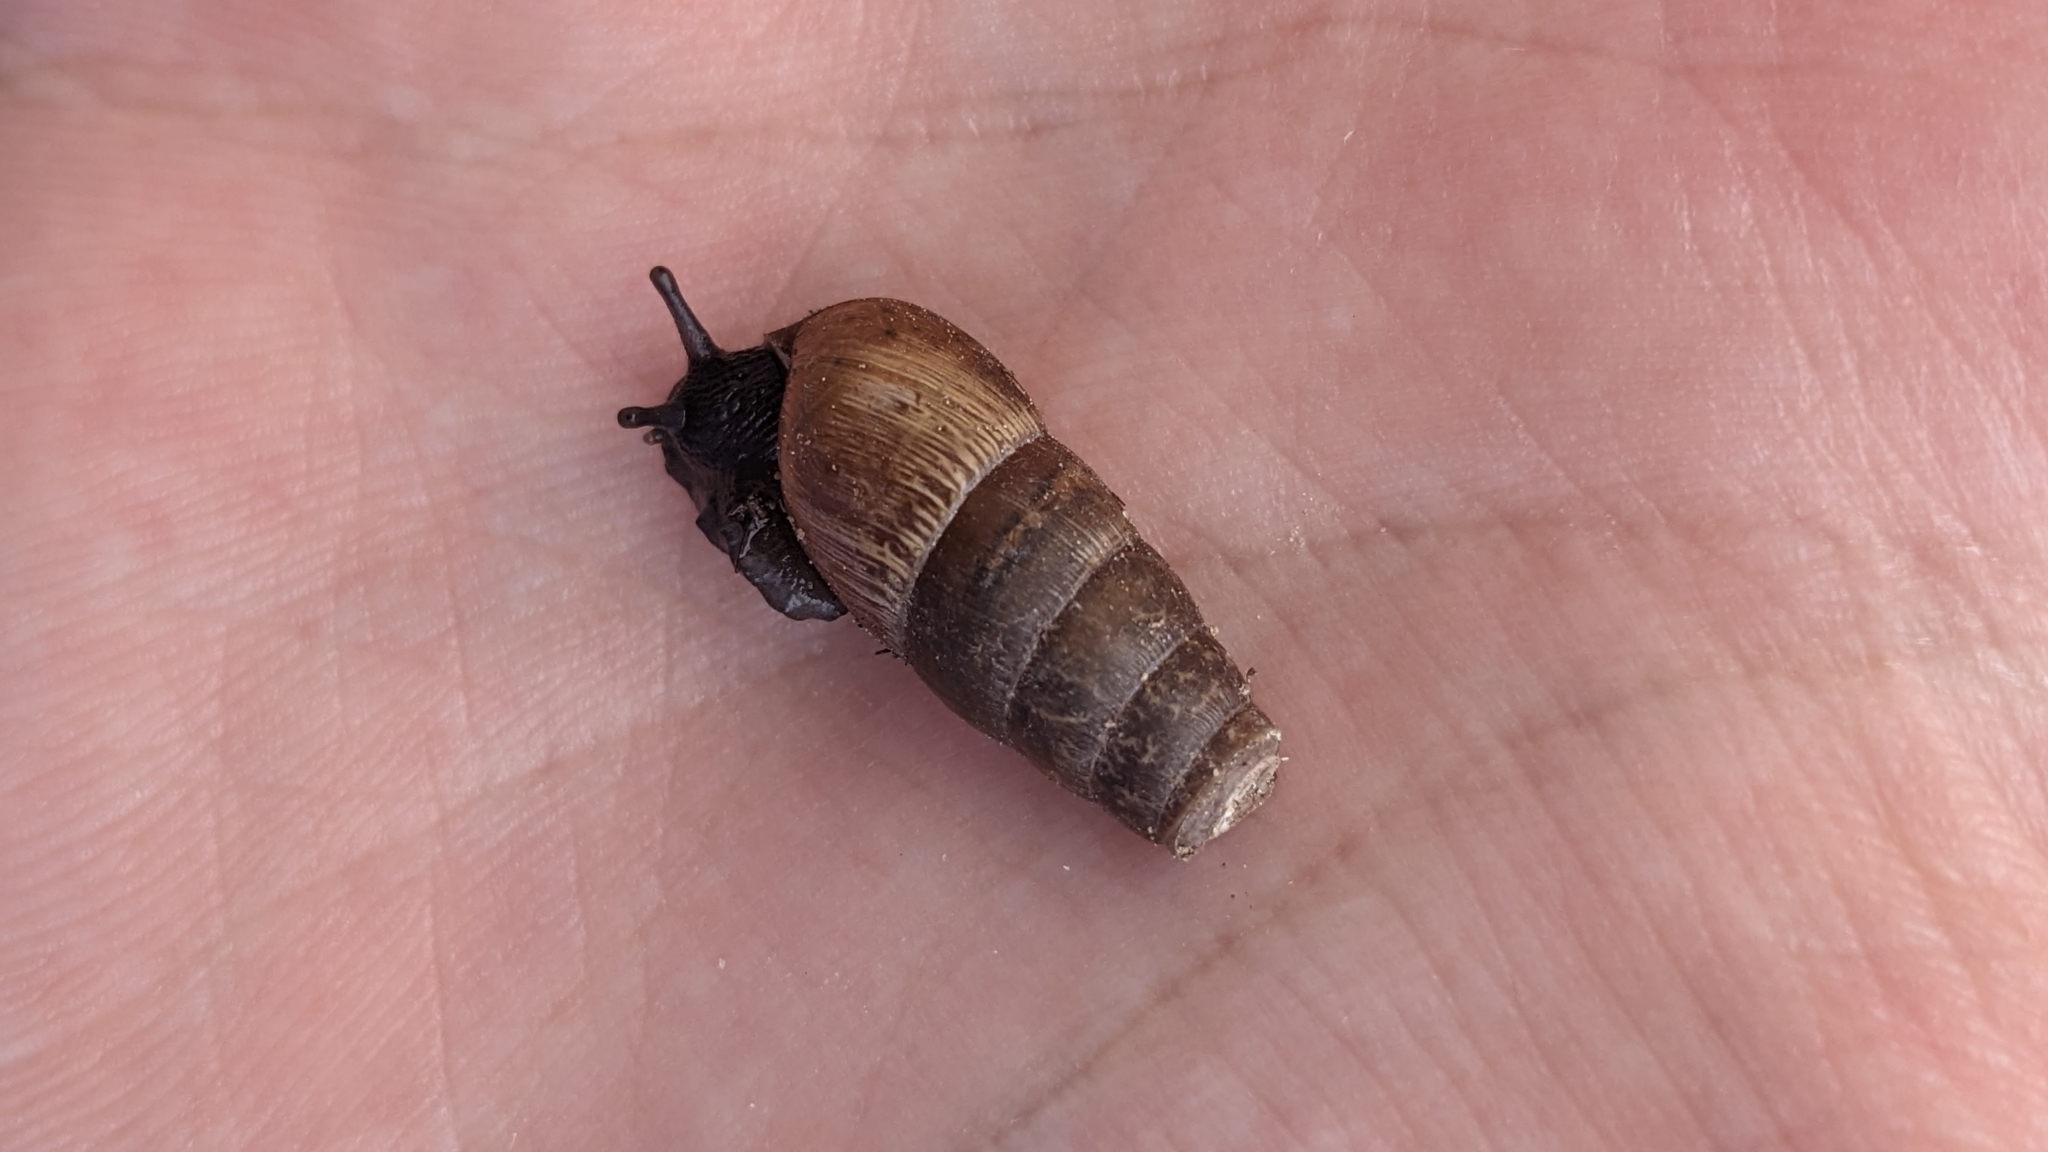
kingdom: Animalia
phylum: Mollusca
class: Gastropoda
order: Stylommatophora
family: Achatinidae
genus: Rumina
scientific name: Rumina decollata
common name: Decollate snail
